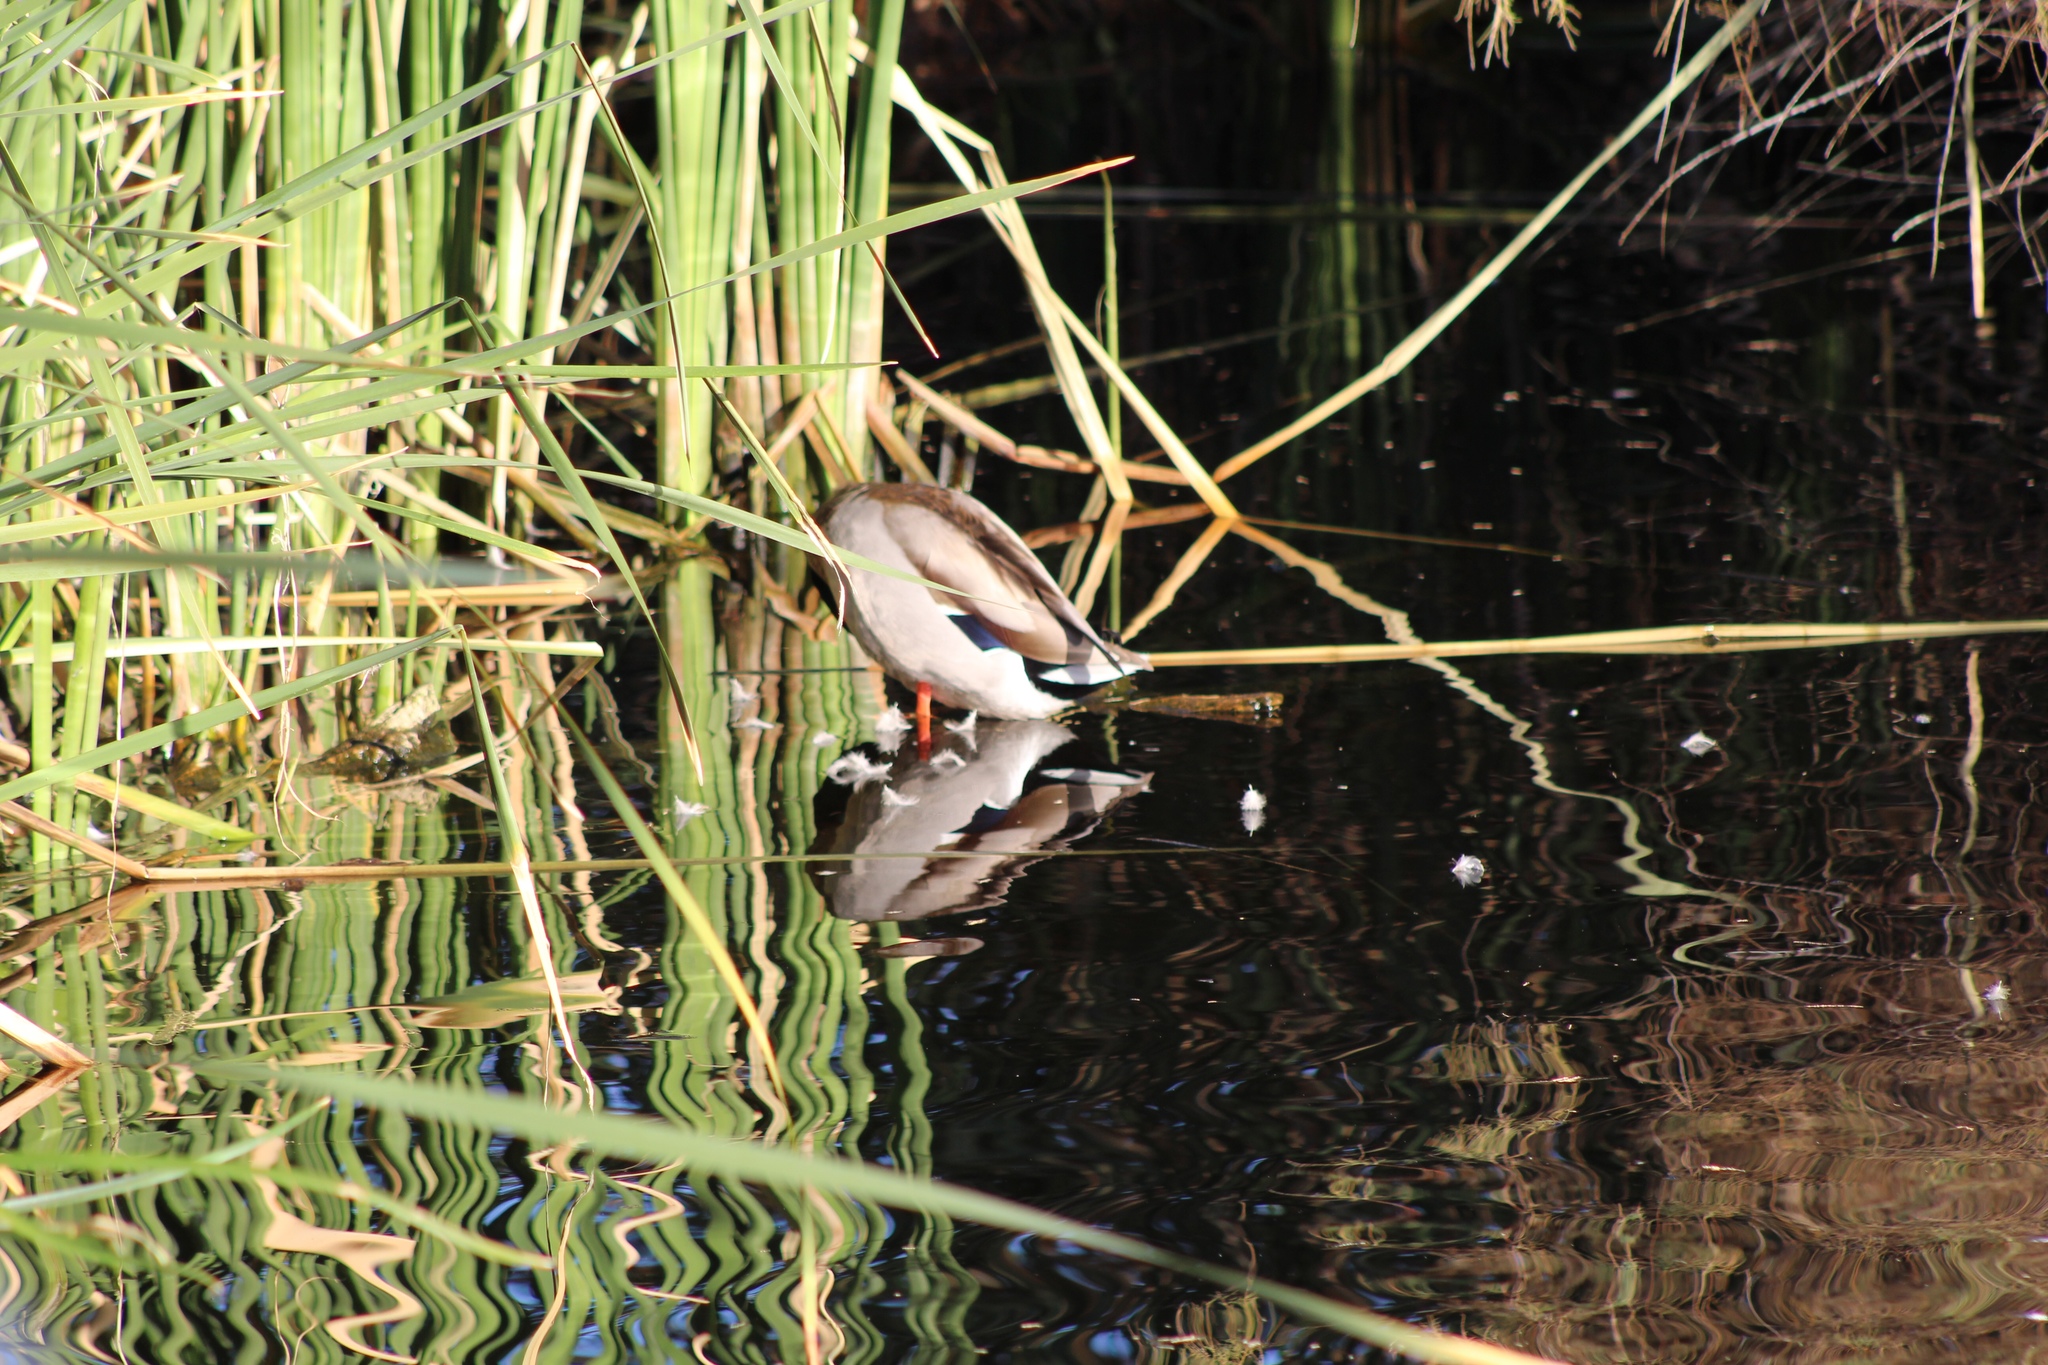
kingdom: Animalia
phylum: Chordata
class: Aves
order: Anseriformes
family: Anatidae
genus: Anas
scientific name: Anas platyrhynchos
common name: Mallard
